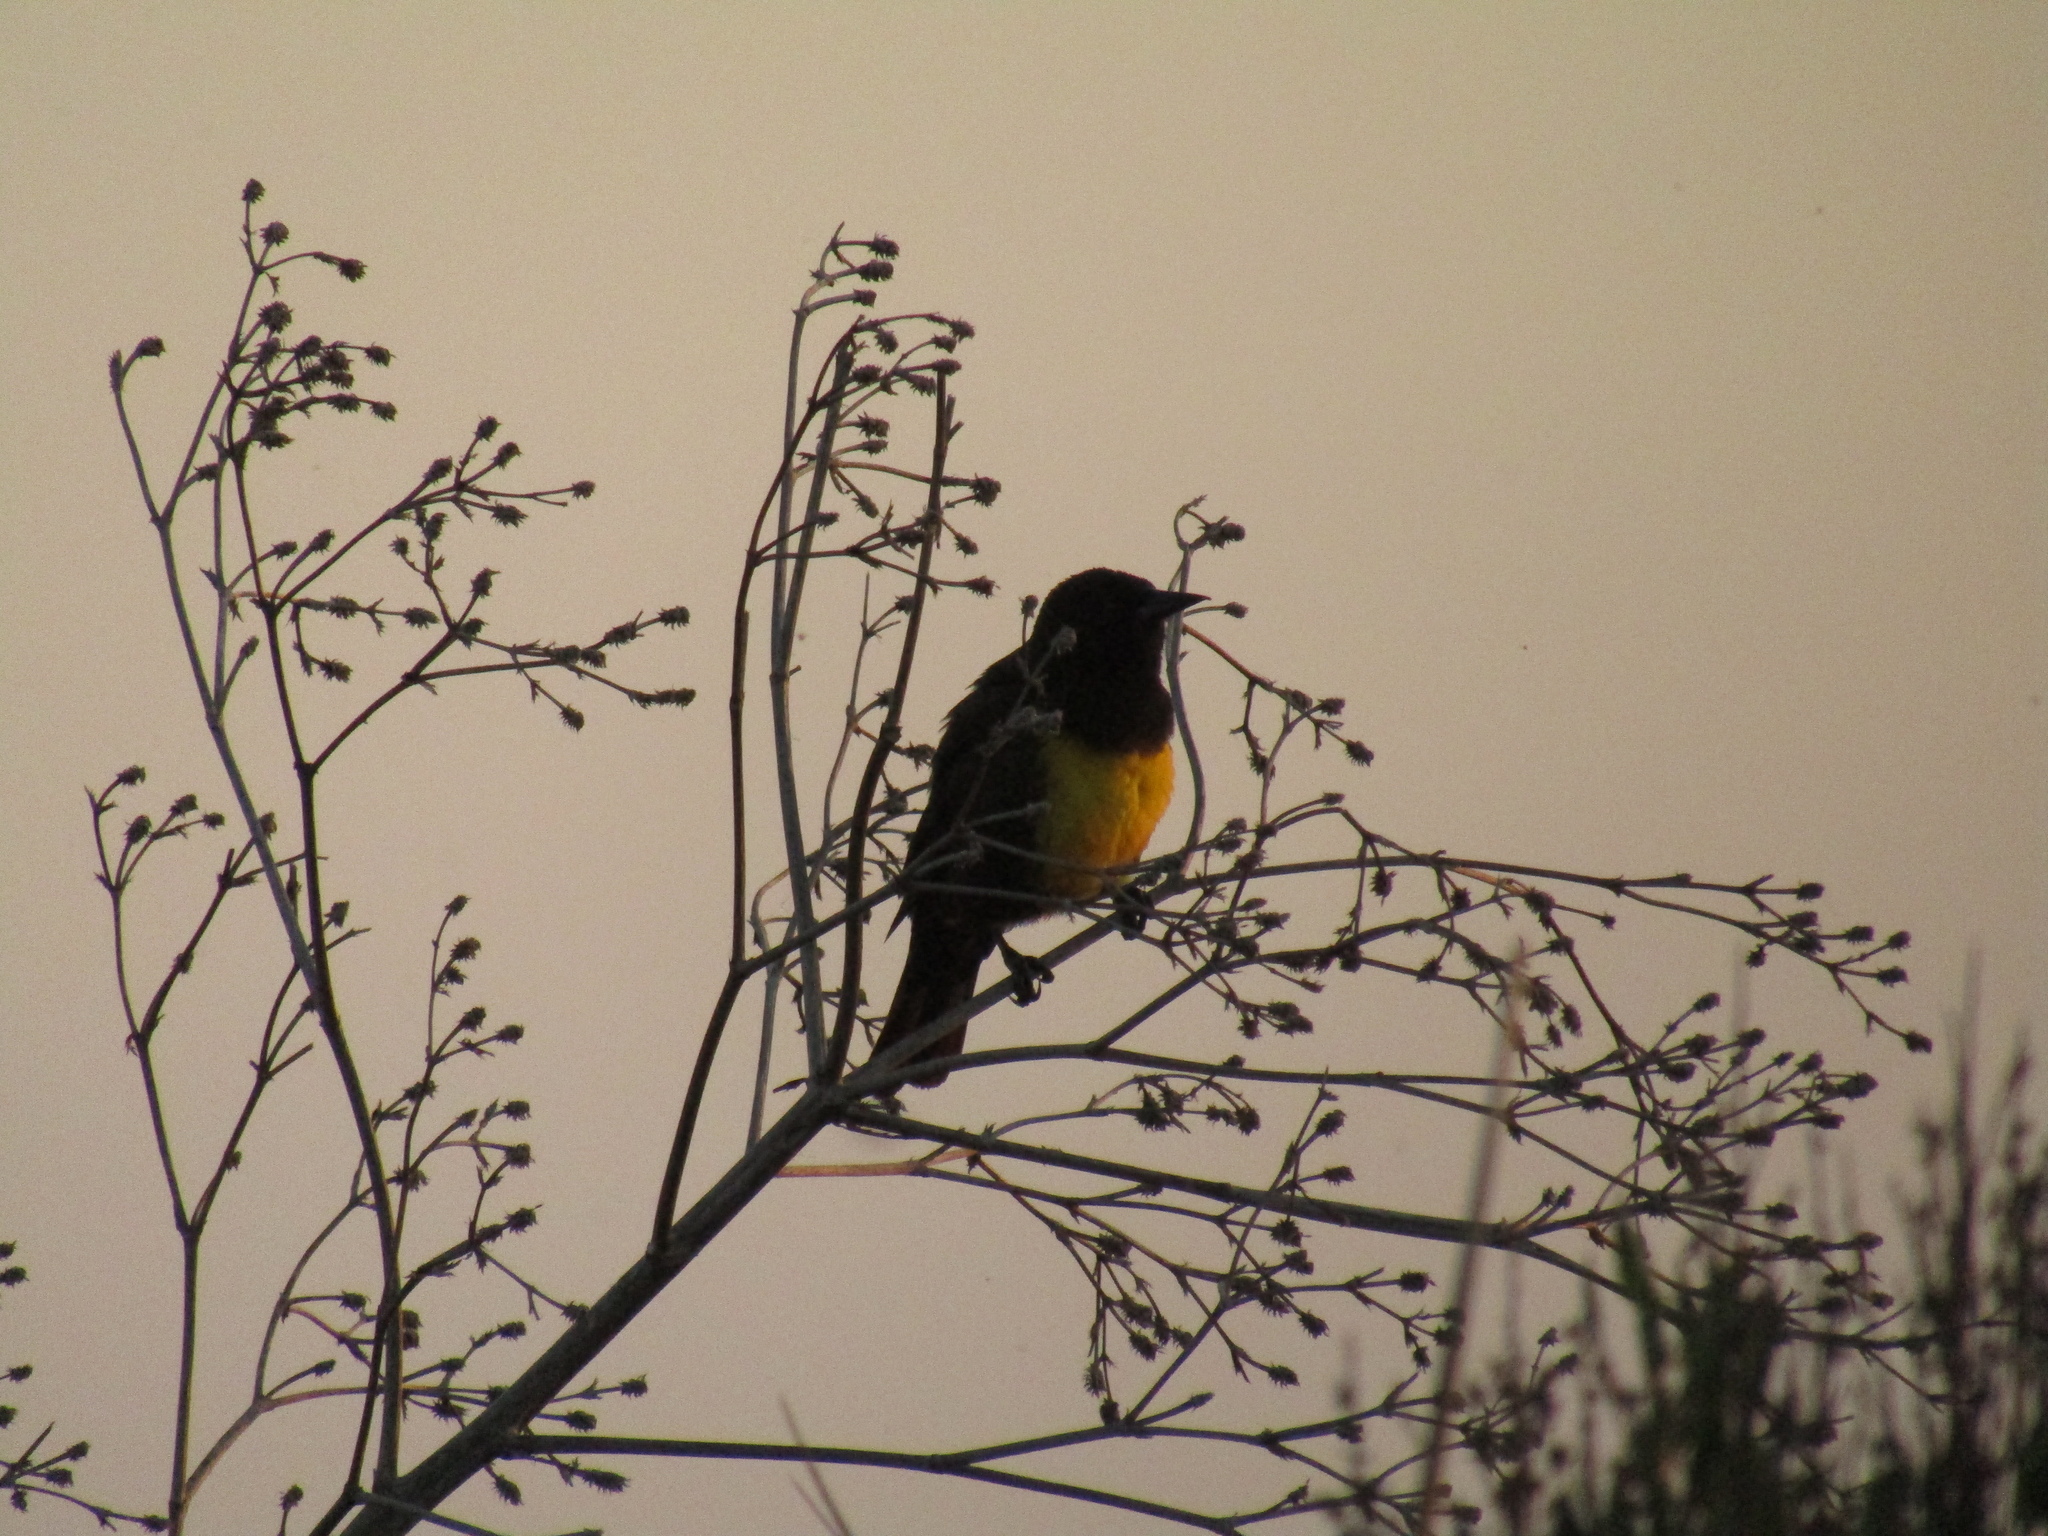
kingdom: Animalia
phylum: Chordata
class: Aves
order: Passeriformes
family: Icteridae
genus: Pseudoleistes
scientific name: Pseudoleistes virescens
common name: Brown-and-yellow marshbird
